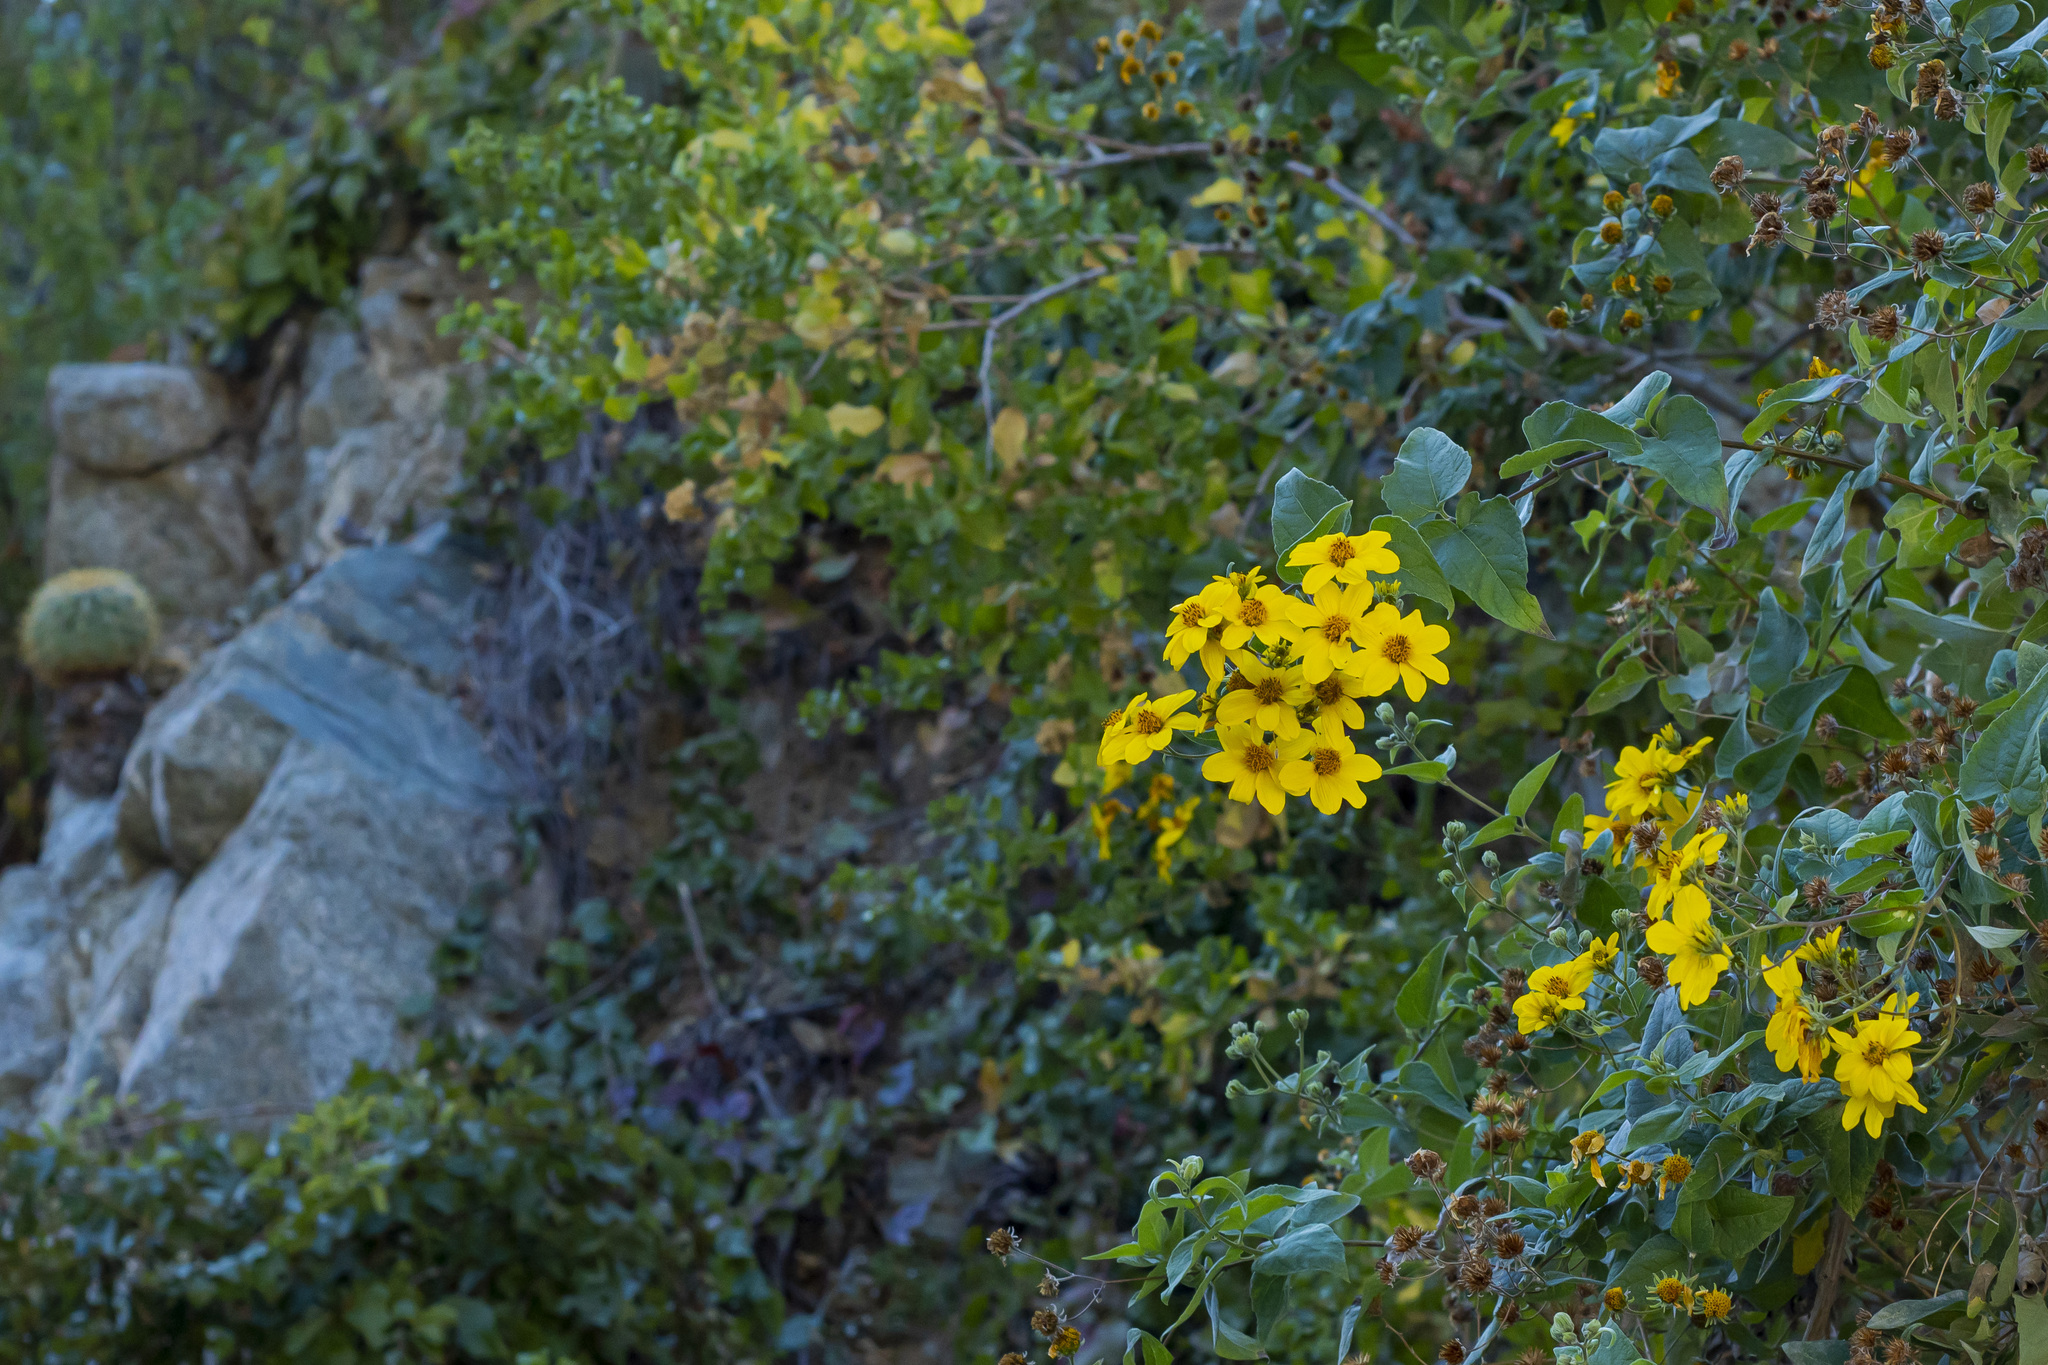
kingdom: Plantae
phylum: Tracheophyta
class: Magnoliopsida
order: Asterales
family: Asteraceae
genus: Bahiopsis
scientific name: Bahiopsis tomentosa
